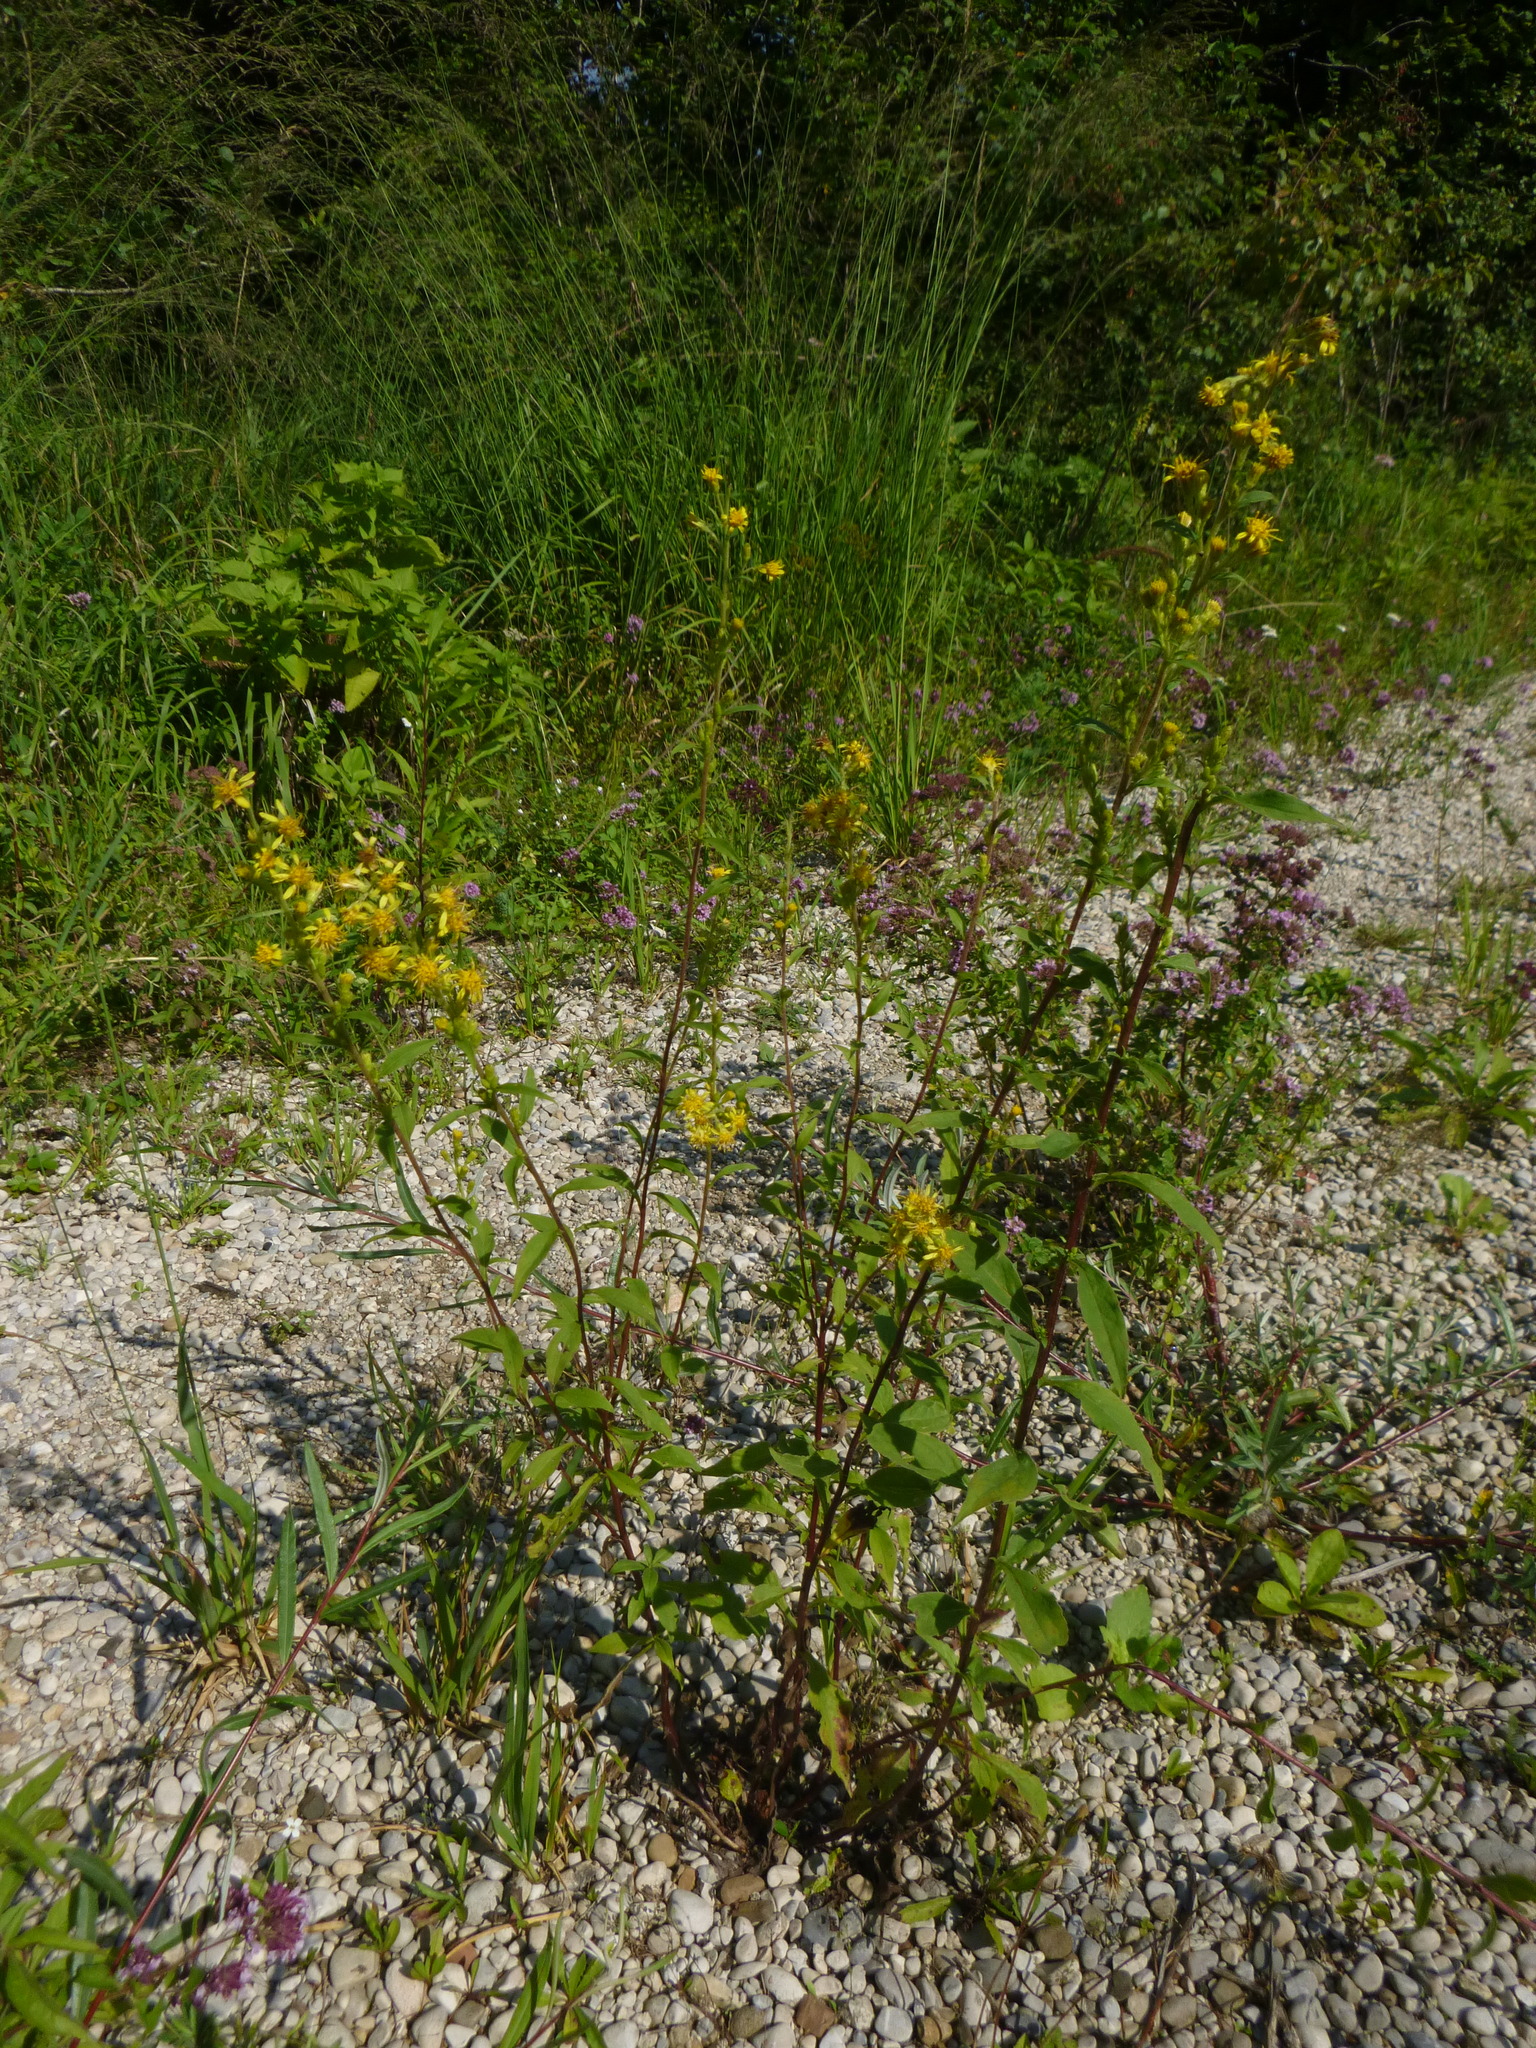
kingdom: Plantae
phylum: Tracheophyta
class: Magnoliopsida
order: Asterales
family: Asteraceae
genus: Solidago
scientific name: Solidago virgaurea
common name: Goldenrod
